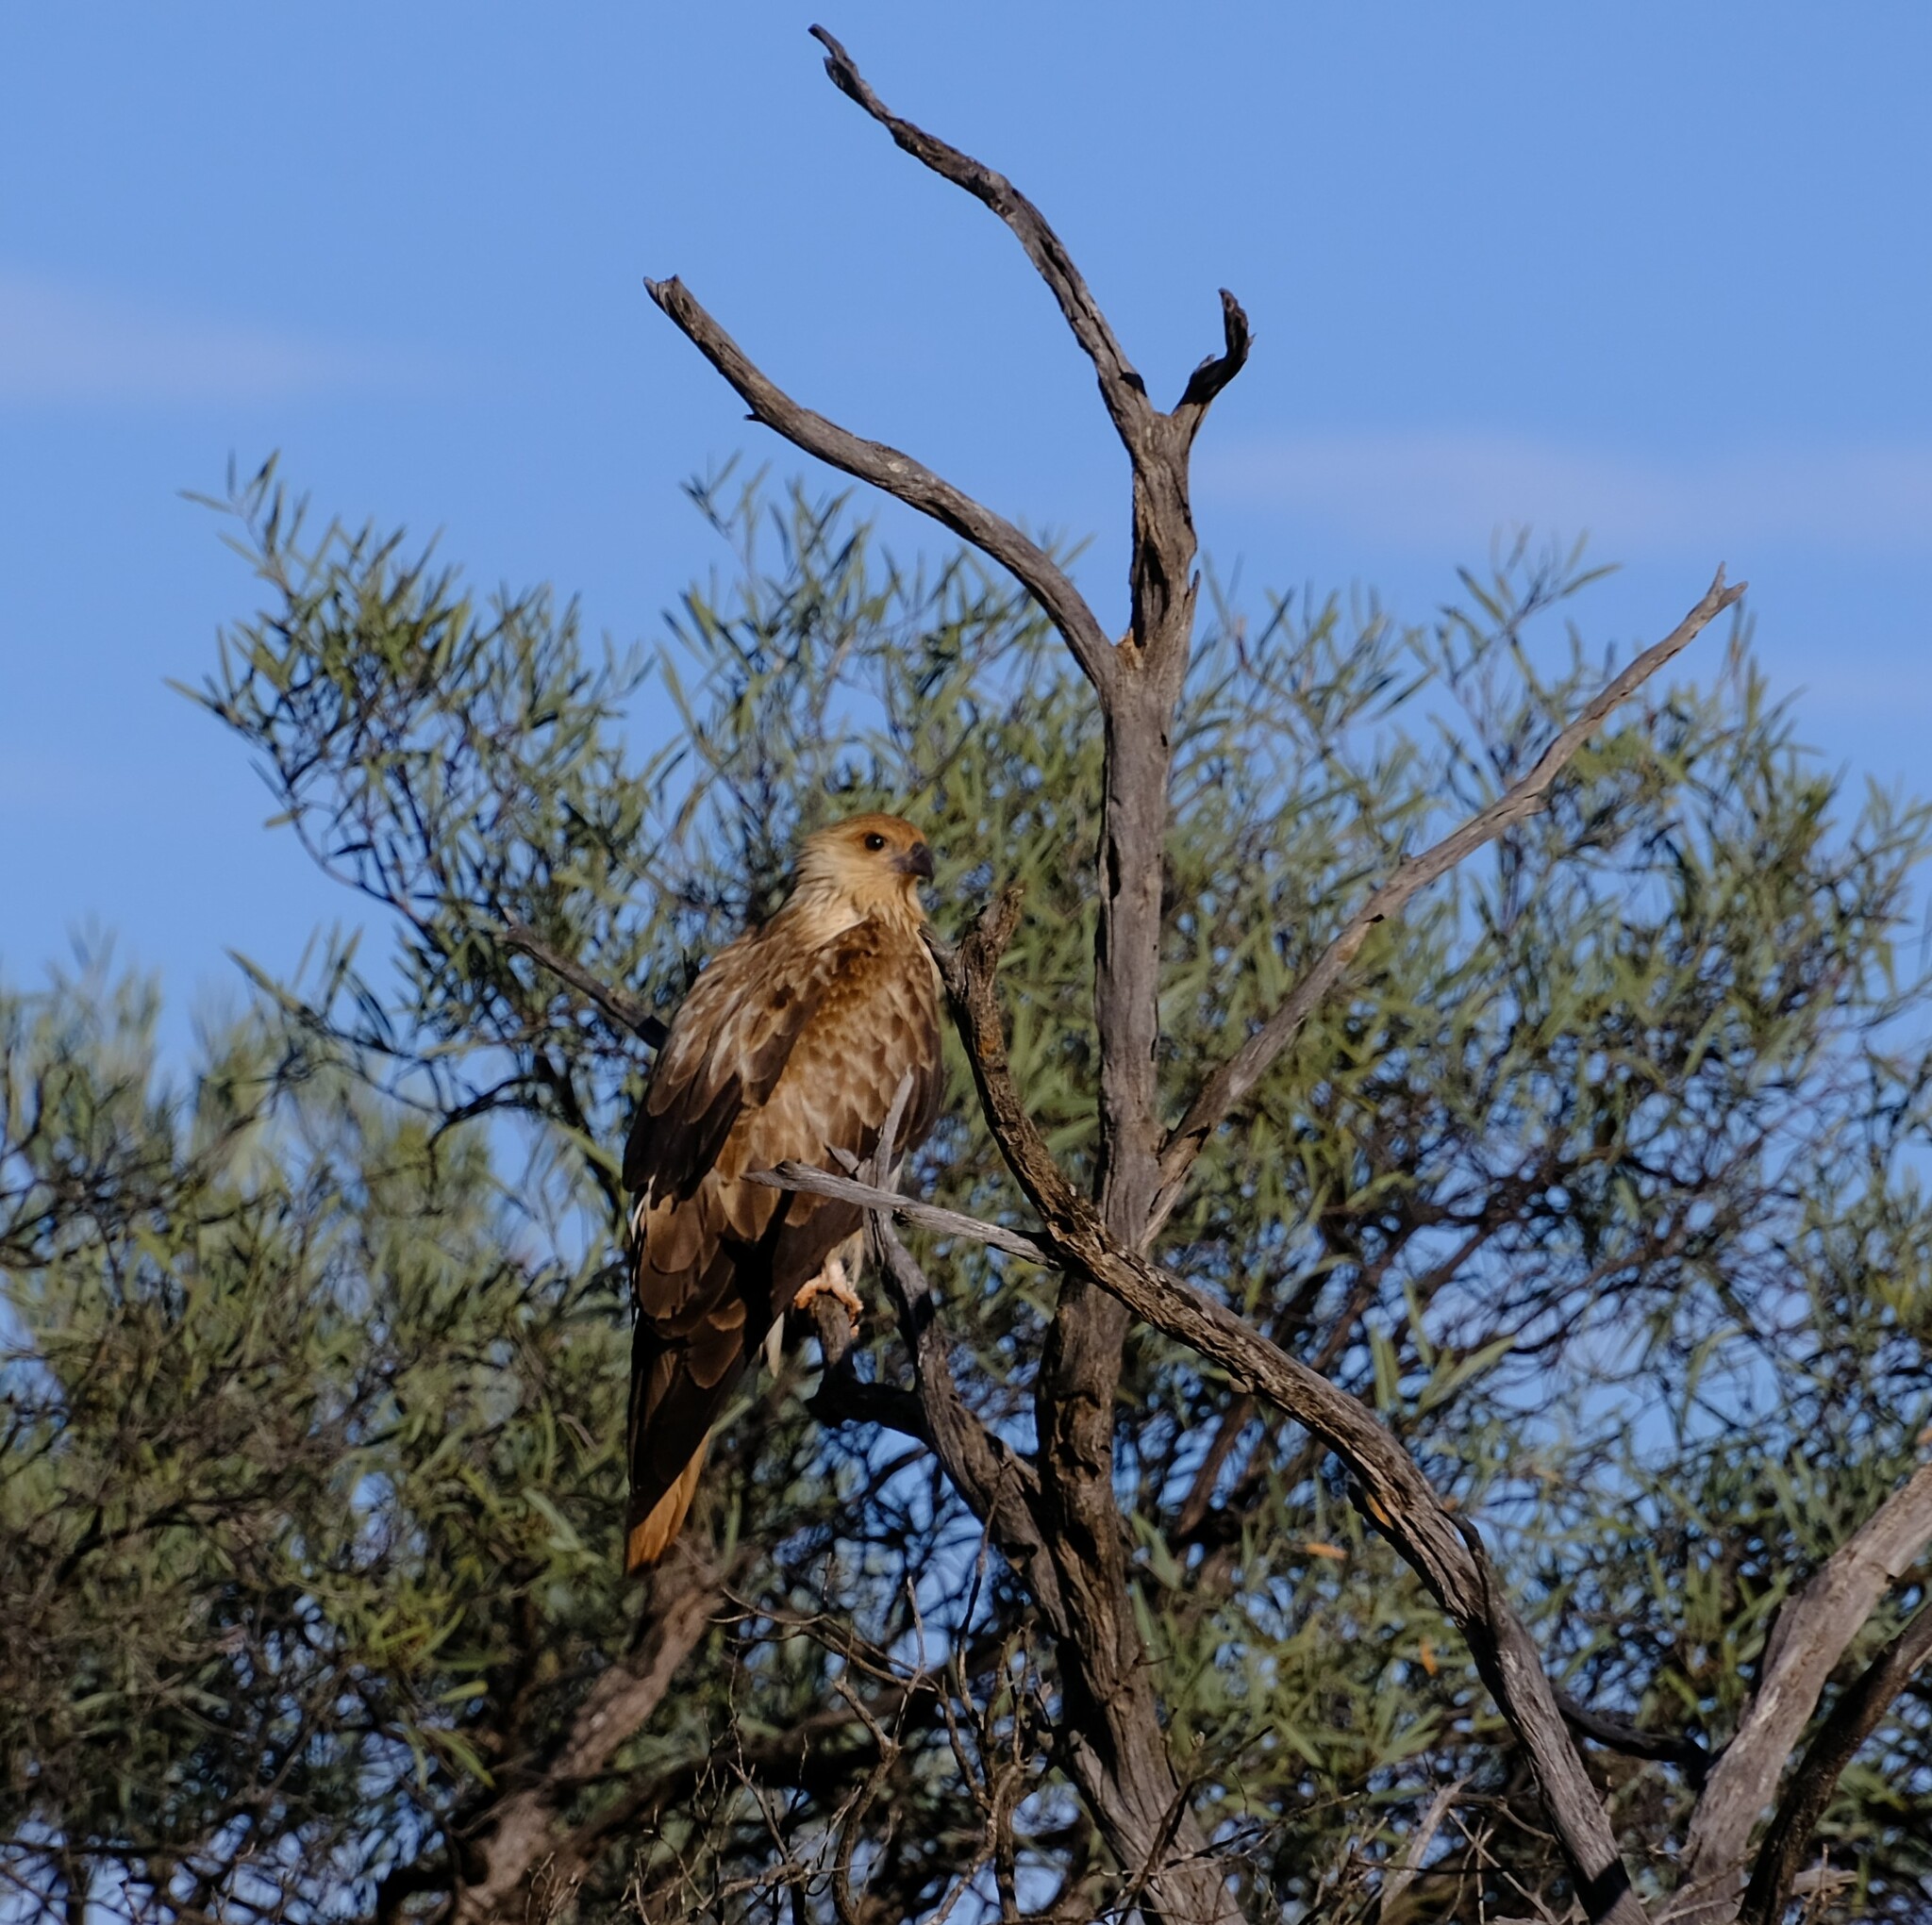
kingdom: Animalia
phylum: Chordata
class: Aves
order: Accipitriformes
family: Accipitridae
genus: Haliastur
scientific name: Haliastur sphenurus
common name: Whistling kite
